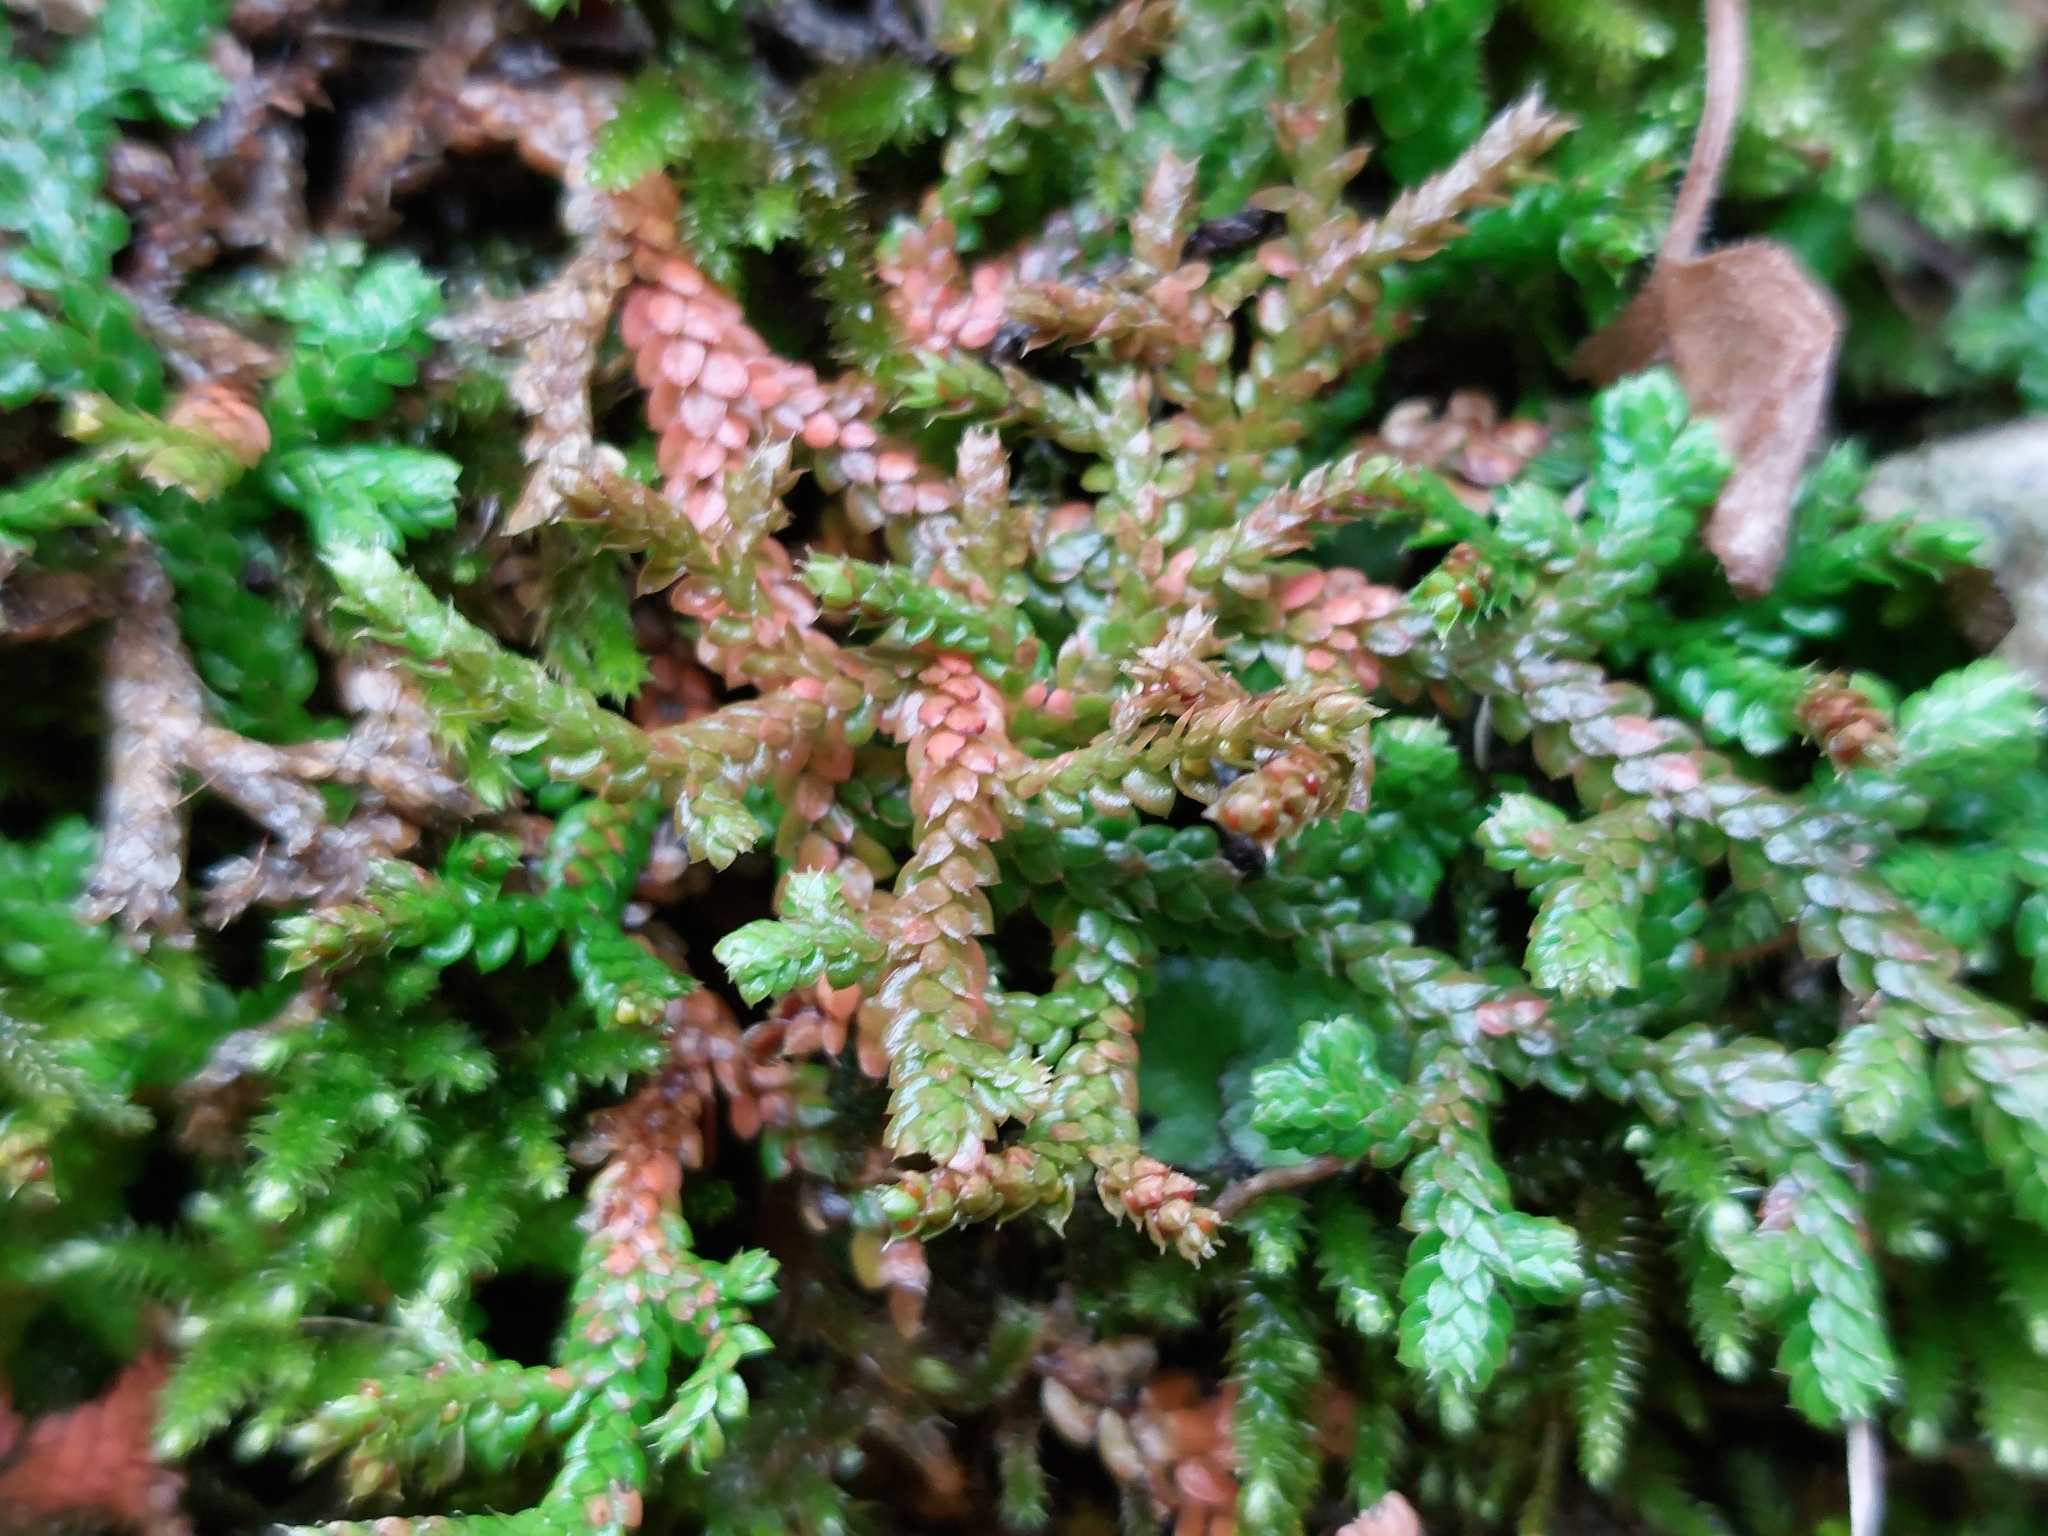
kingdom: Plantae
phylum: Tracheophyta
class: Lycopodiopsida
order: Selaginellales
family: Selaginellaceae
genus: Selaginella
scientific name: Selaginella denticulata
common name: Toothed-leaved clubmoss
